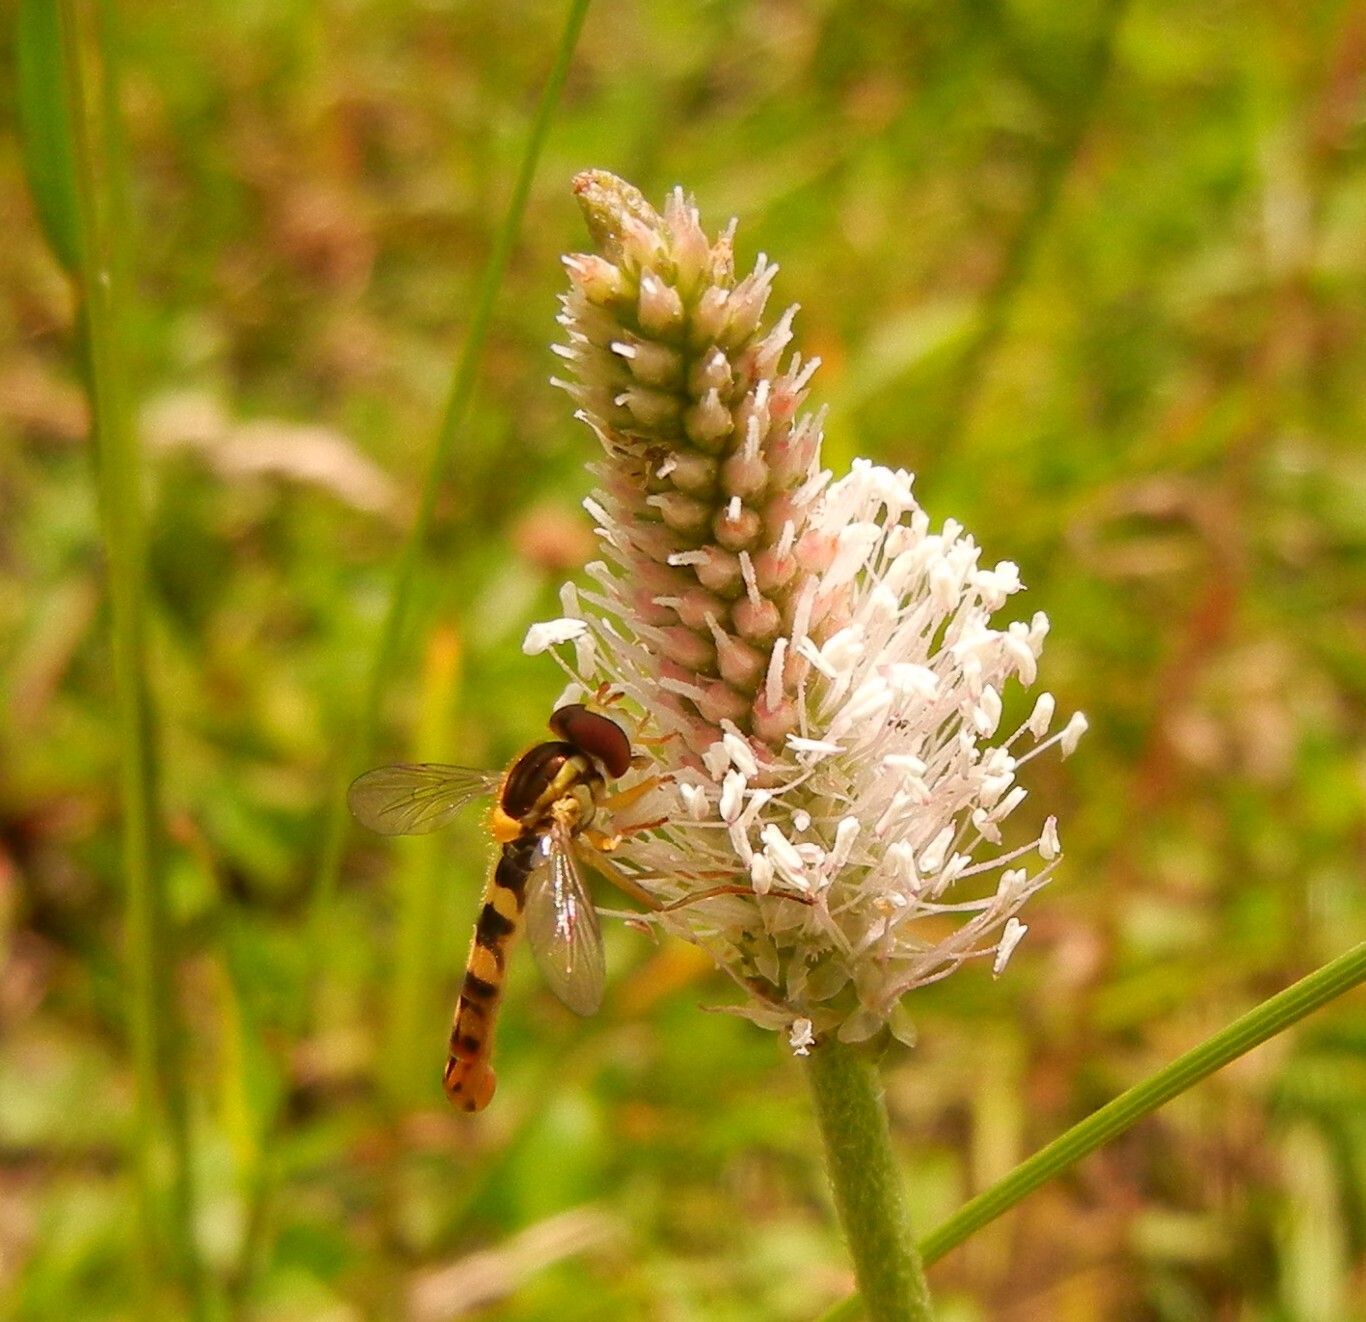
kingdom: Animalia
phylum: Arthropoda
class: Insecta
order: Diptera
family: Syrphidae
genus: Sphaerophoria
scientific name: Sphaerophoria scripta
